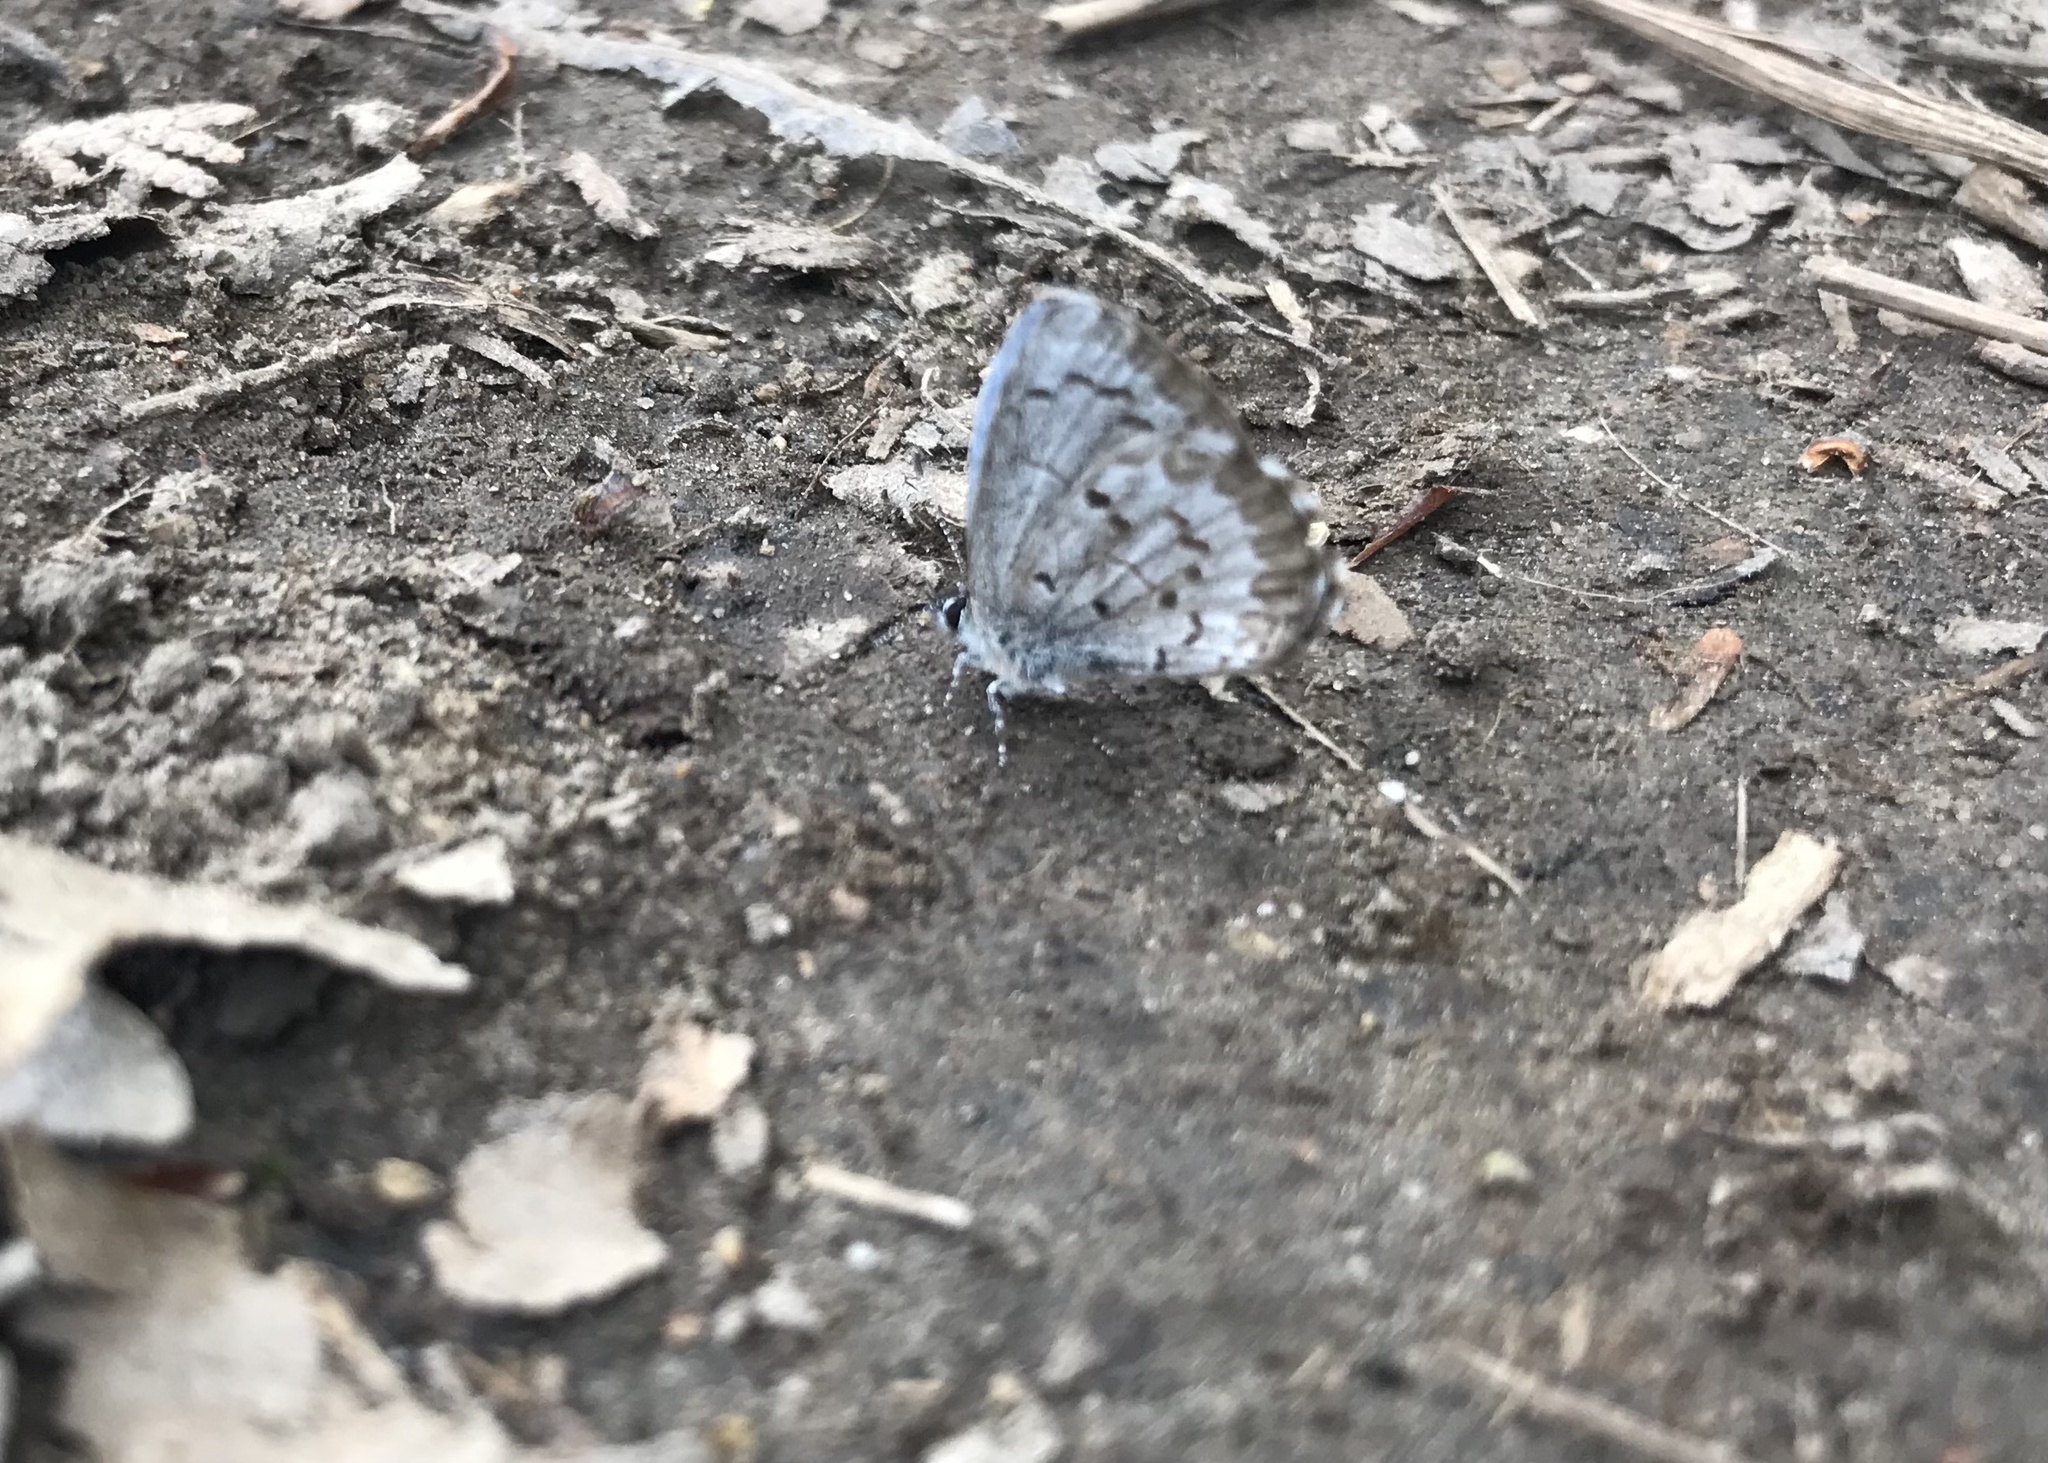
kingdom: Animalia
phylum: Arthropoda
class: Insecta
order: Lepidoptera
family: Lycaenidae
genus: Celastrina
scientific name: Celastrina lucia
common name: Lucia azure
